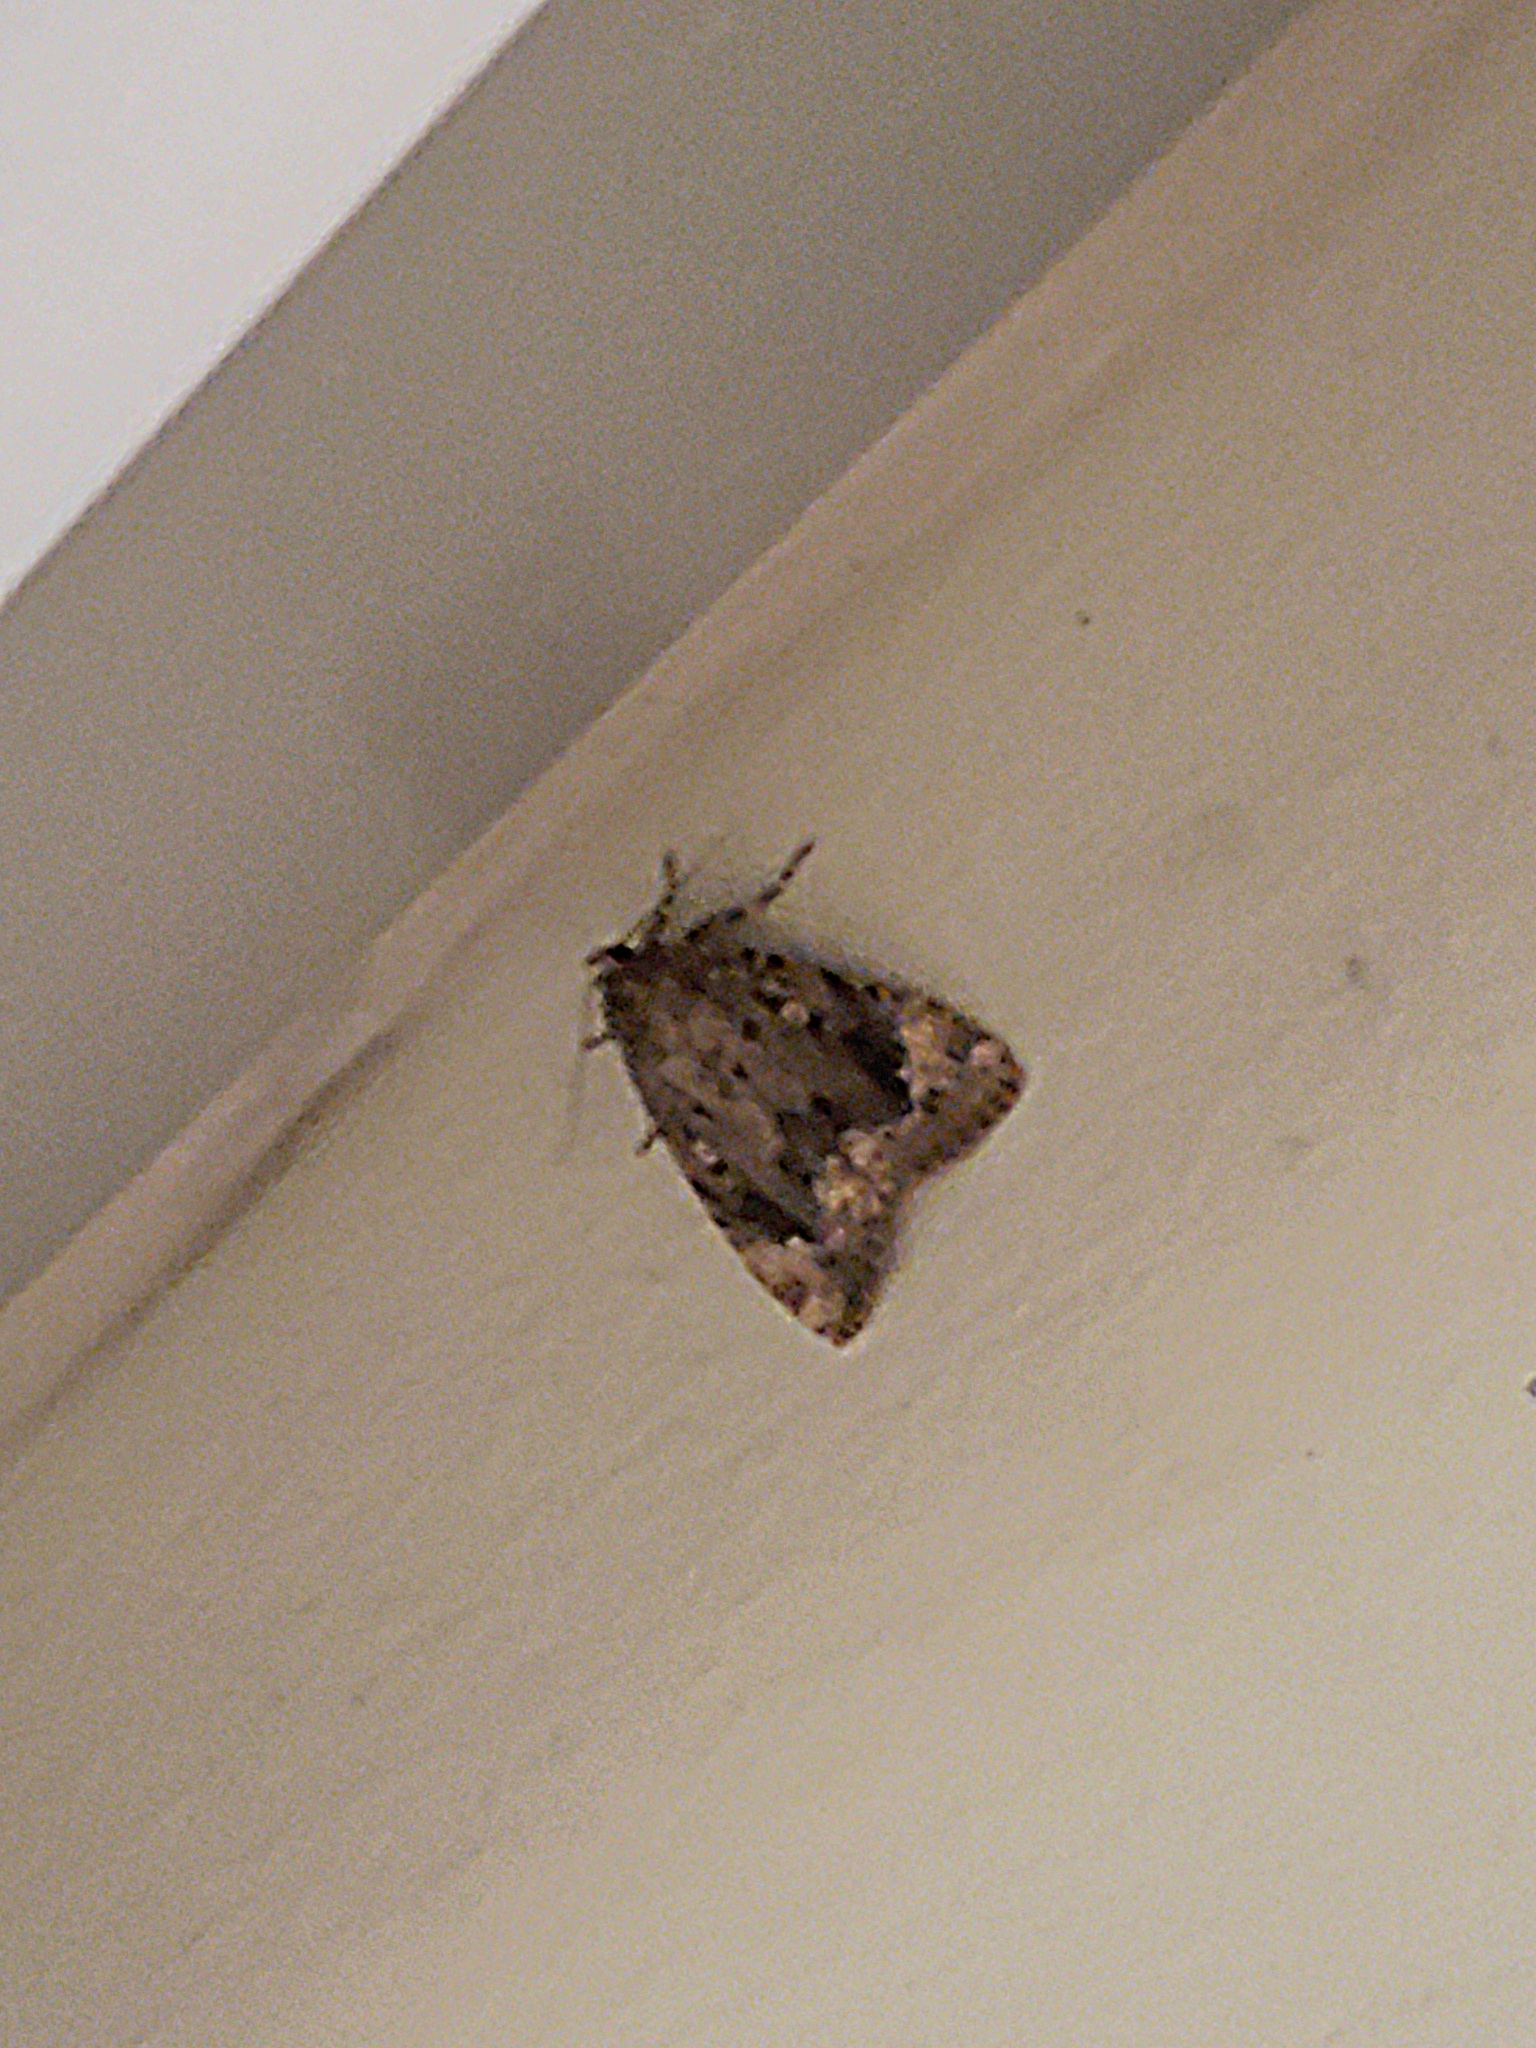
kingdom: Animalia
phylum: Arthropoda
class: Insecta
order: Lepidoptera
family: Noctuidae
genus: Amphipyra
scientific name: Amphipyra pyramidoides
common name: American copper underwing
